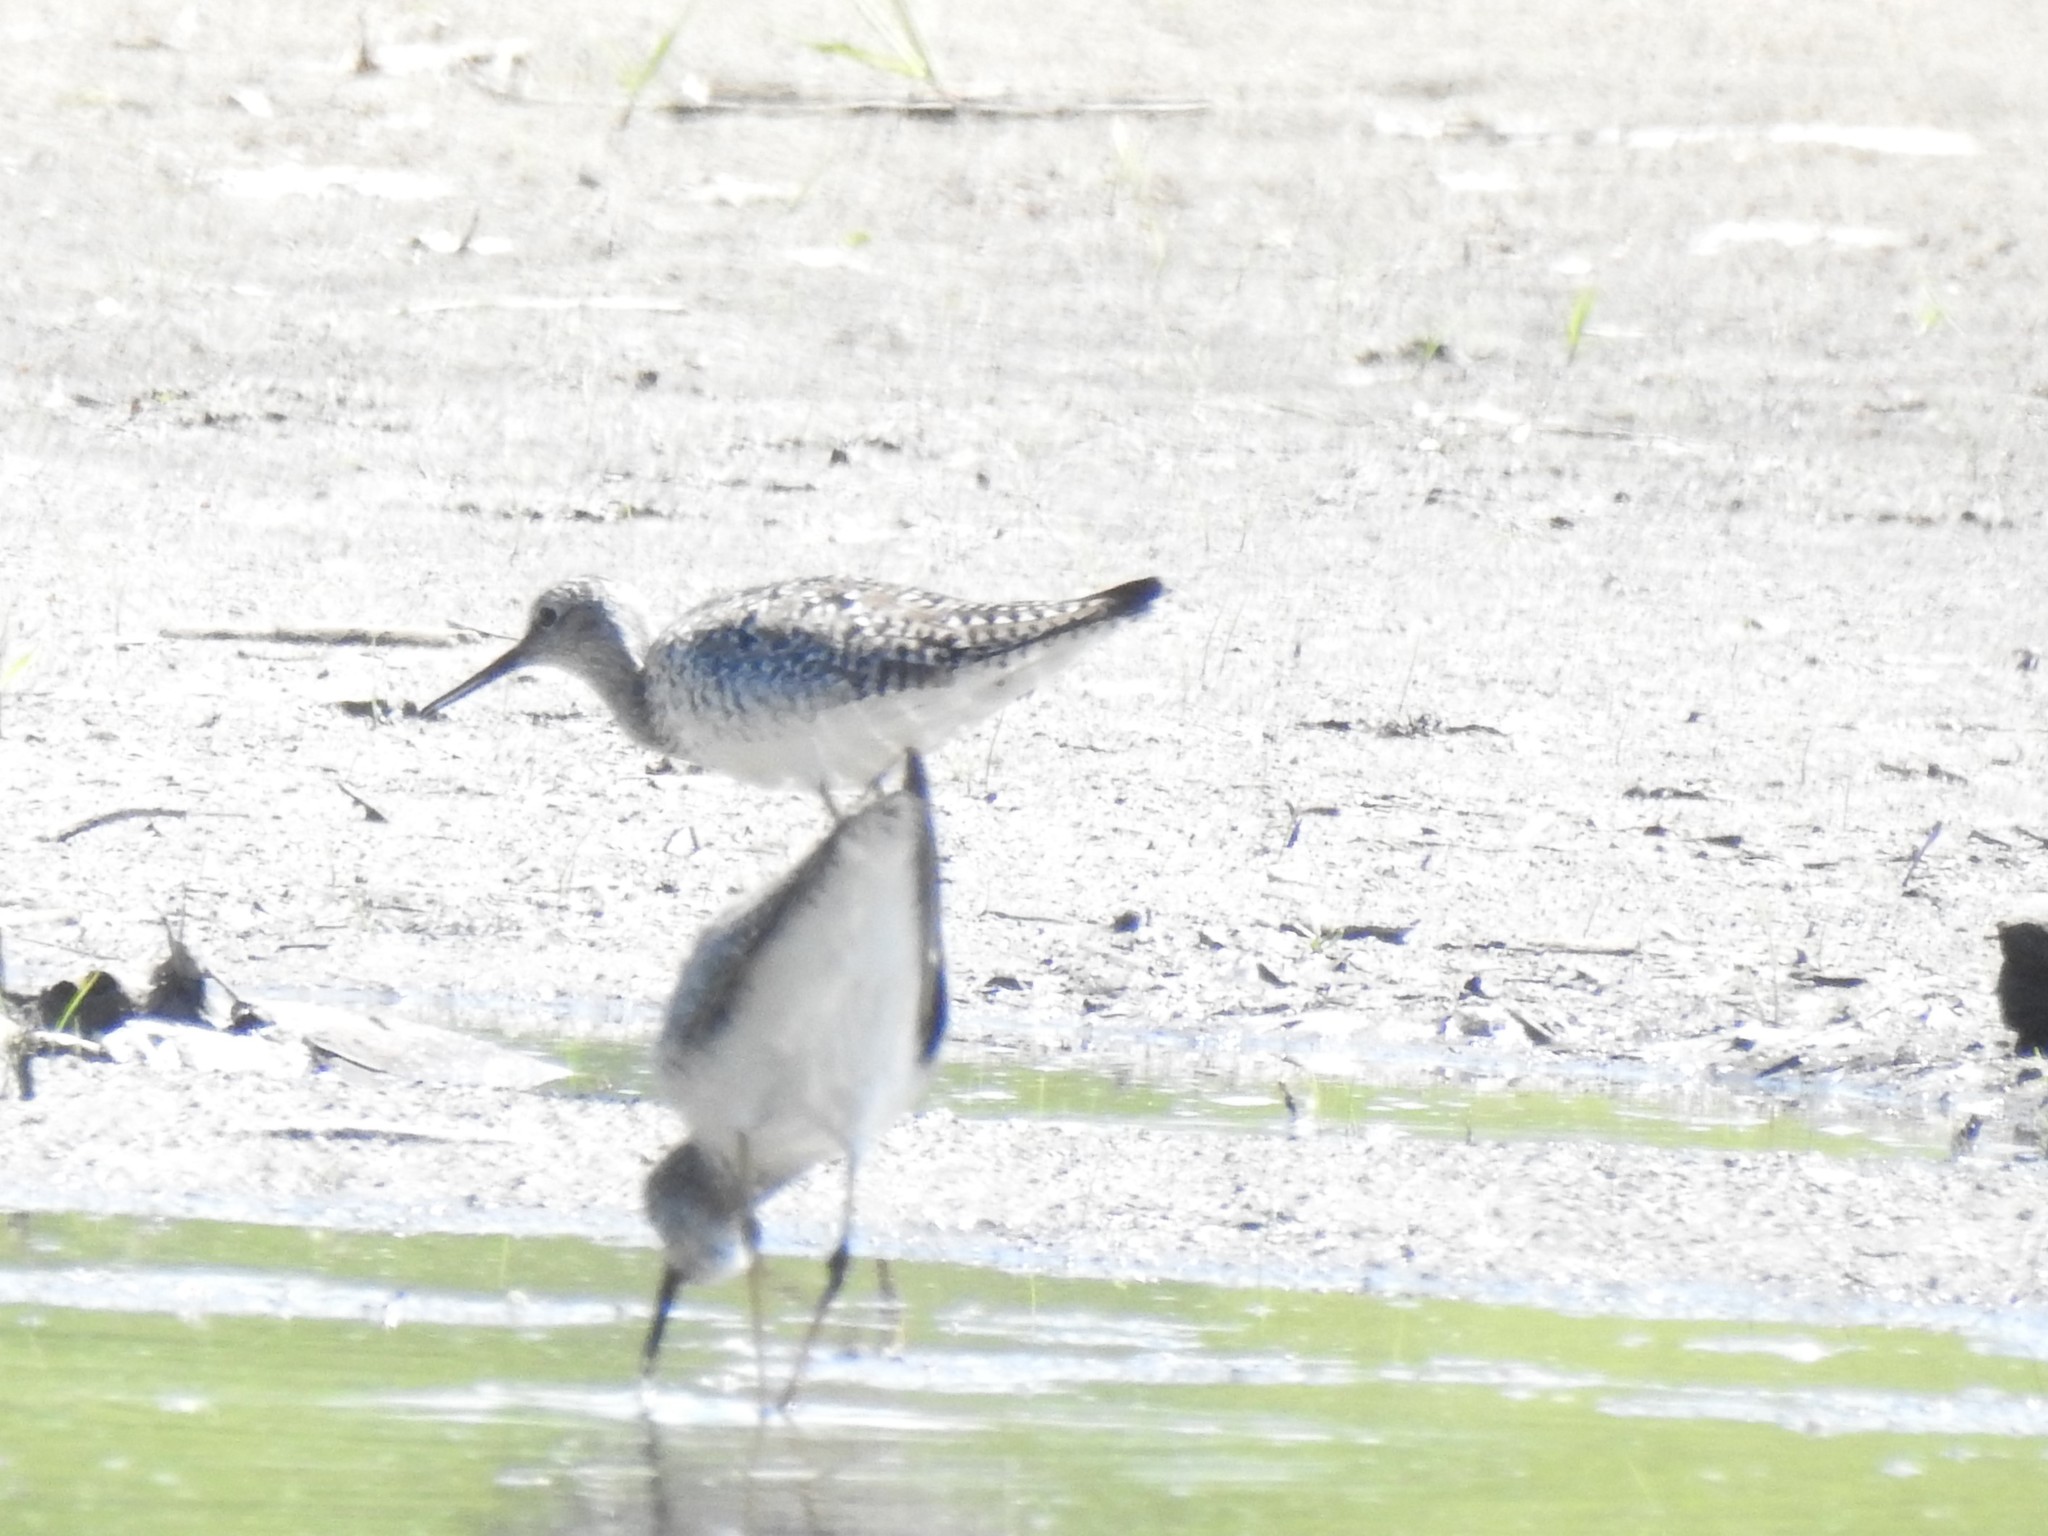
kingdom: Animalia
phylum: Chordata
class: Aves
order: Charadriiformes
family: Scolopacidae
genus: Tringa
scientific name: Tringa flavipes
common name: Lesser yellowlegs
